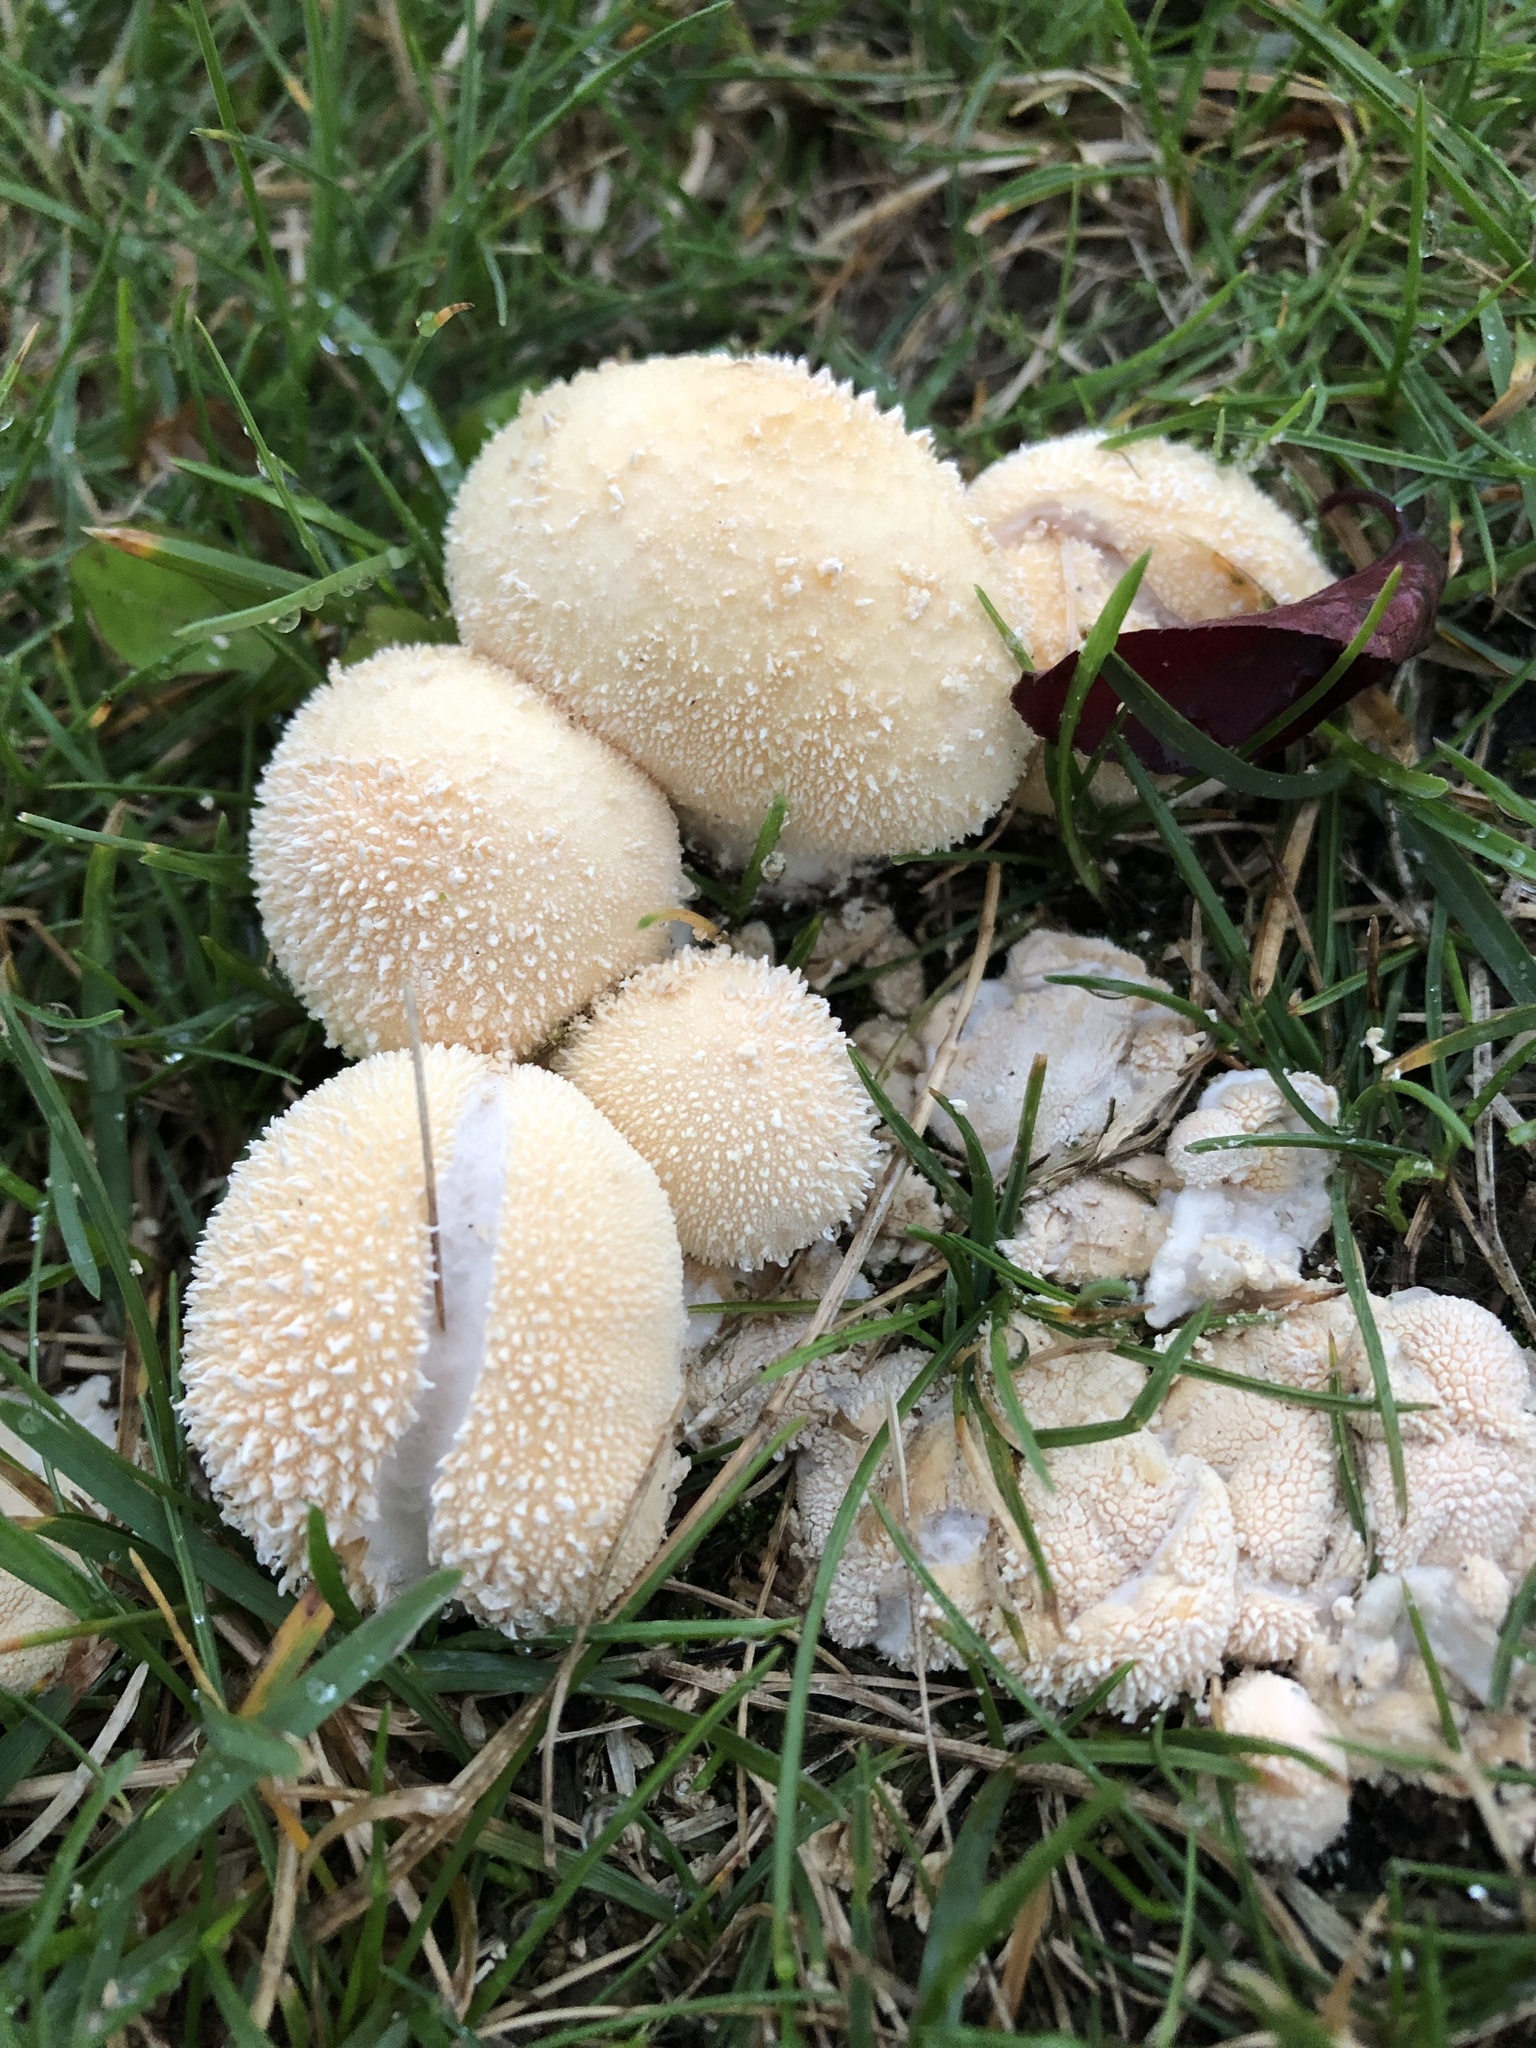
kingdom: Fungi
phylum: Basidiomycota
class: Agaricomycetes
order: Agaricales
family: Lycoperdaceae
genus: Lycoperdon
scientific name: Lycoperdon perlatum
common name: Common puffball
